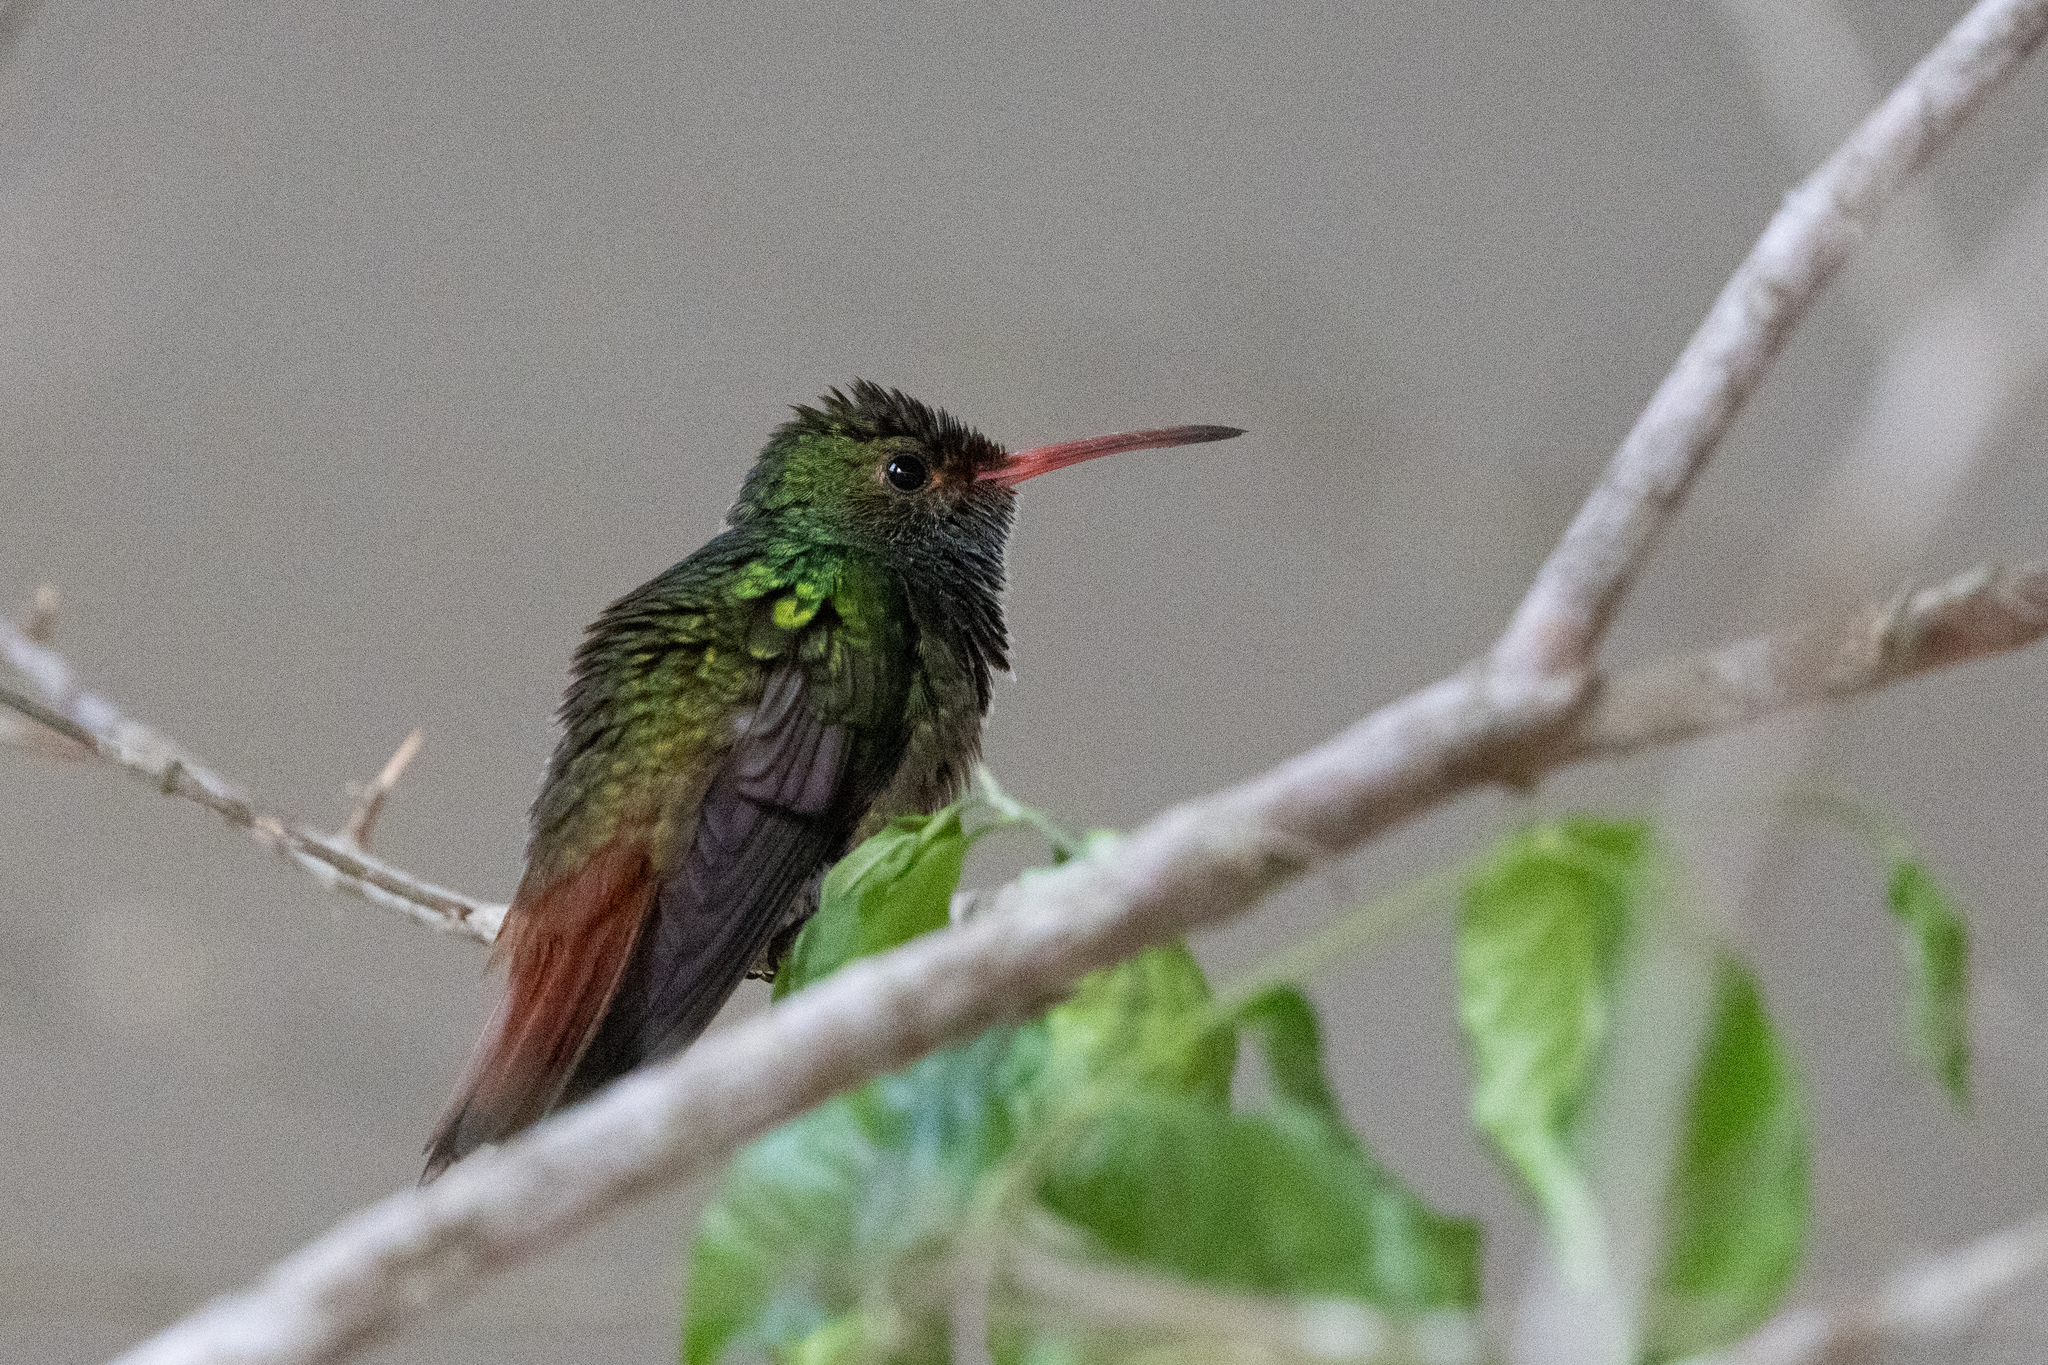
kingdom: Animalia
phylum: Chordata
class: Aves
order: Apodiformes
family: Trochilidae
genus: Amazilia
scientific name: Amazilia tzacatl
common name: Rufous-tailed hummingbird
